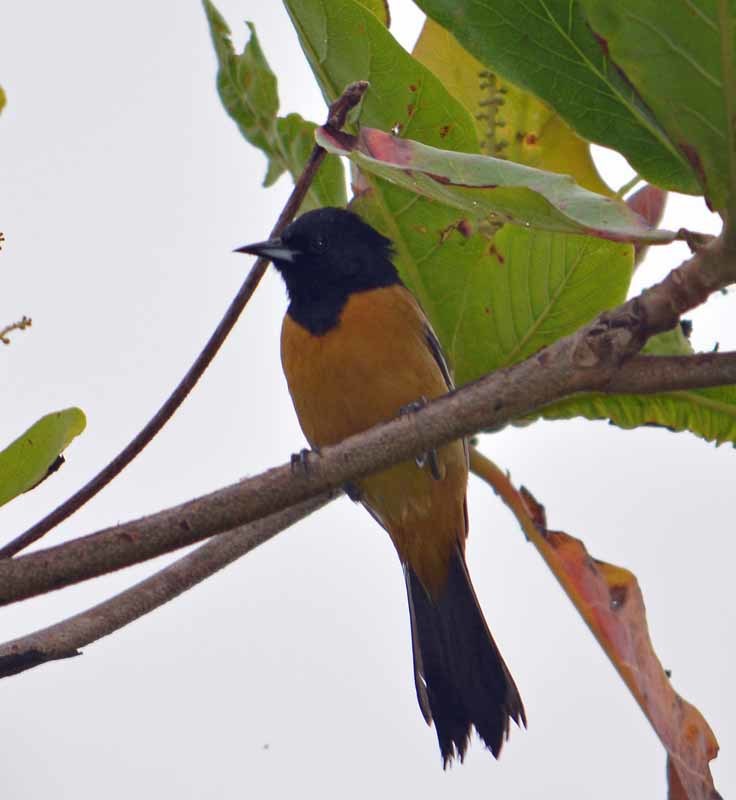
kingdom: Animalia
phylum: Chordata
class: Aves
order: Passeriformes
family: Icteridae
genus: Icterus
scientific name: Icterus galbula
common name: Baltimore oriole
